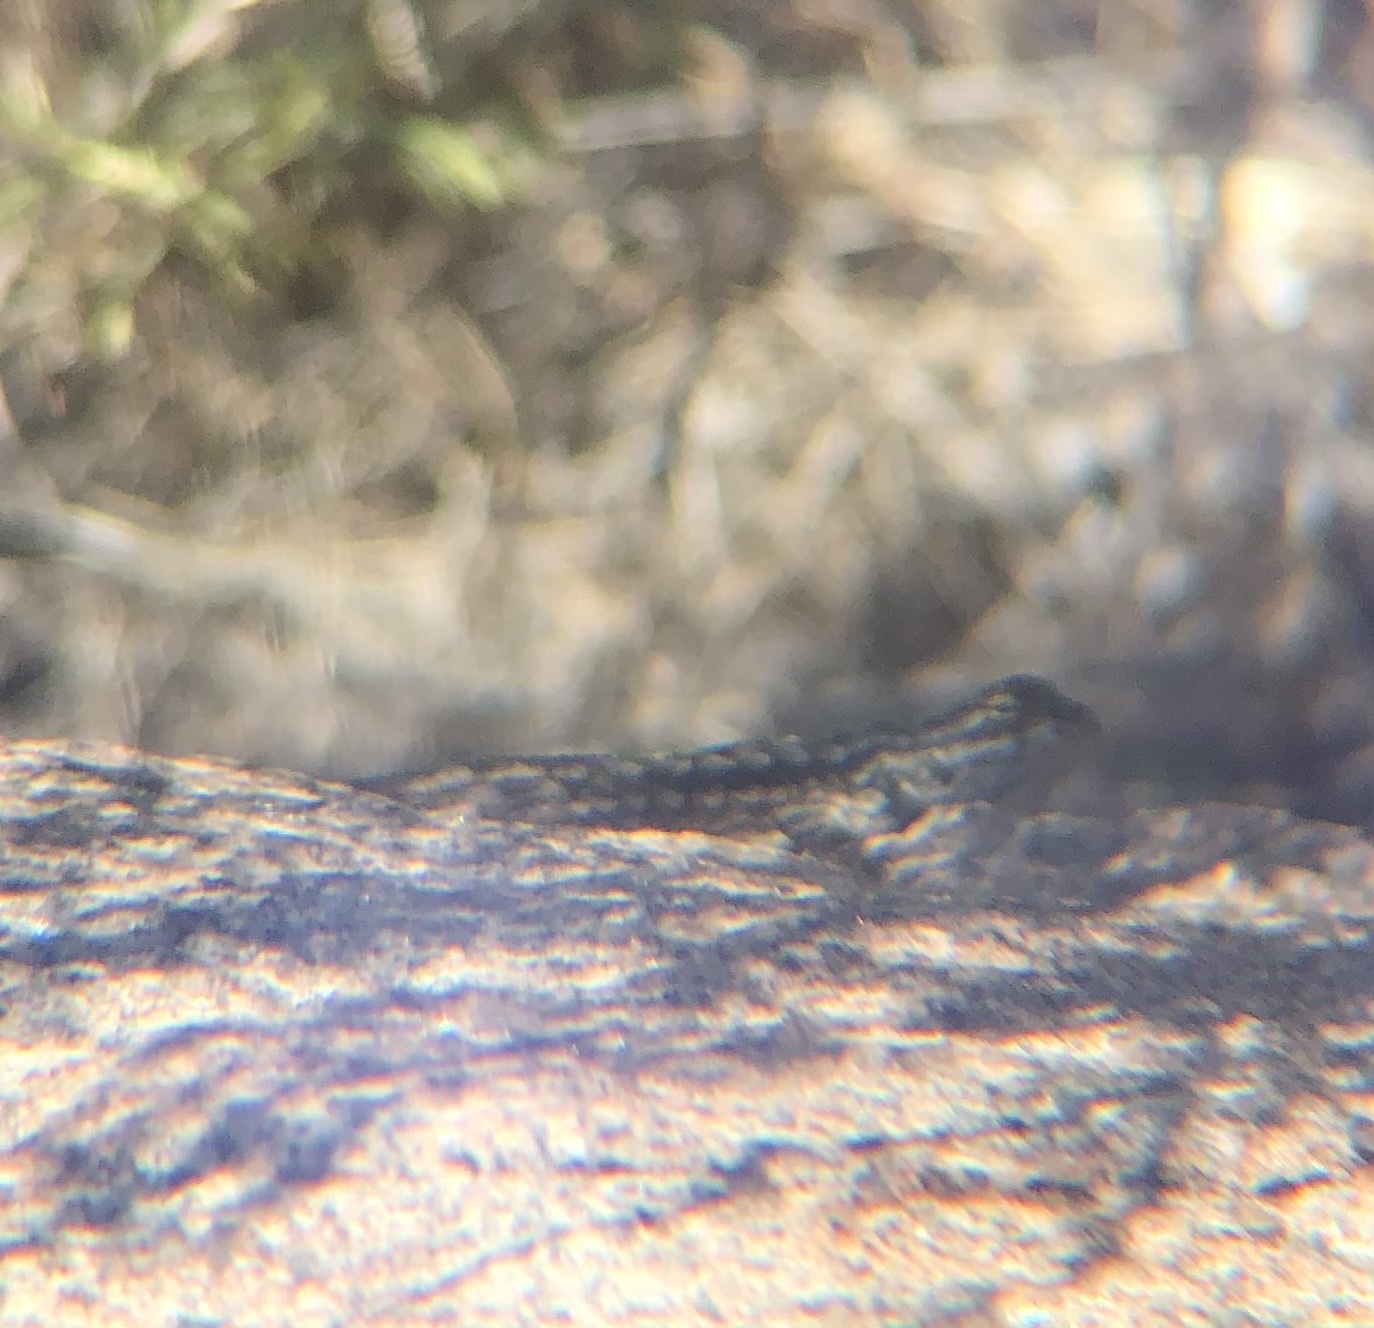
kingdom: Animalia
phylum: Chordata
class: Squamata
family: Phrynosomatidae
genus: Sceloporus
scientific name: Sceloporus occidentalis
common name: Western fence lizard
